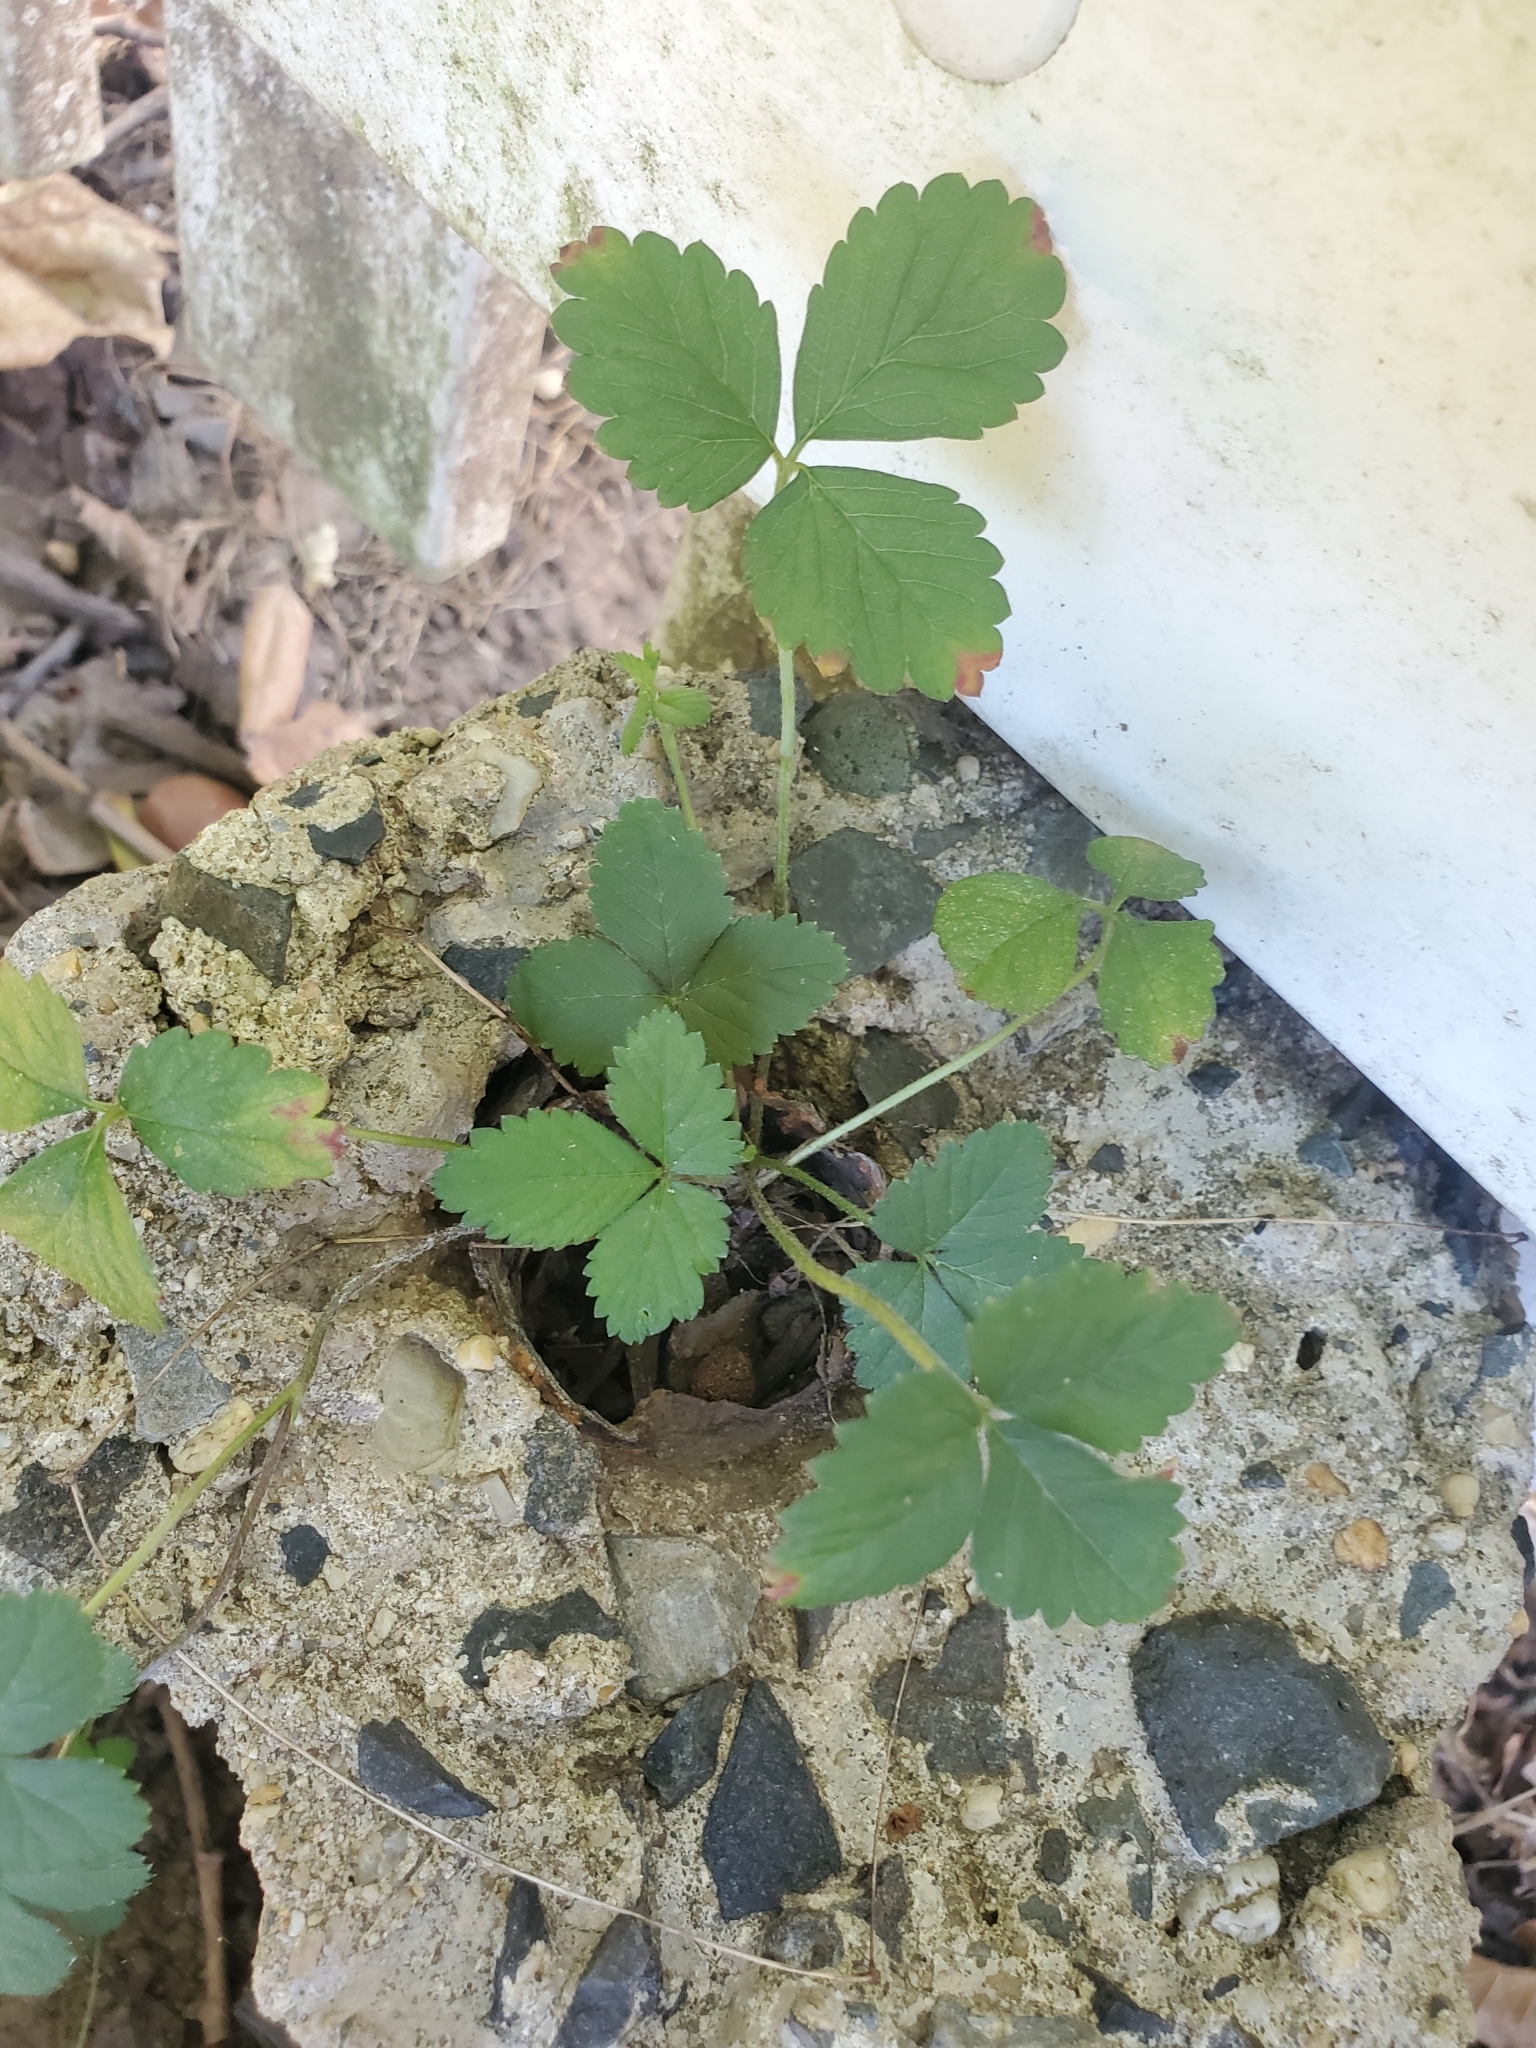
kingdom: Plantae
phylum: Tracheophyta
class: Magnoliopsida
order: Rosales
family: Rosaceae
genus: Potentilla
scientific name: Potentilla indica
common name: Yellow-flowered strawberry
